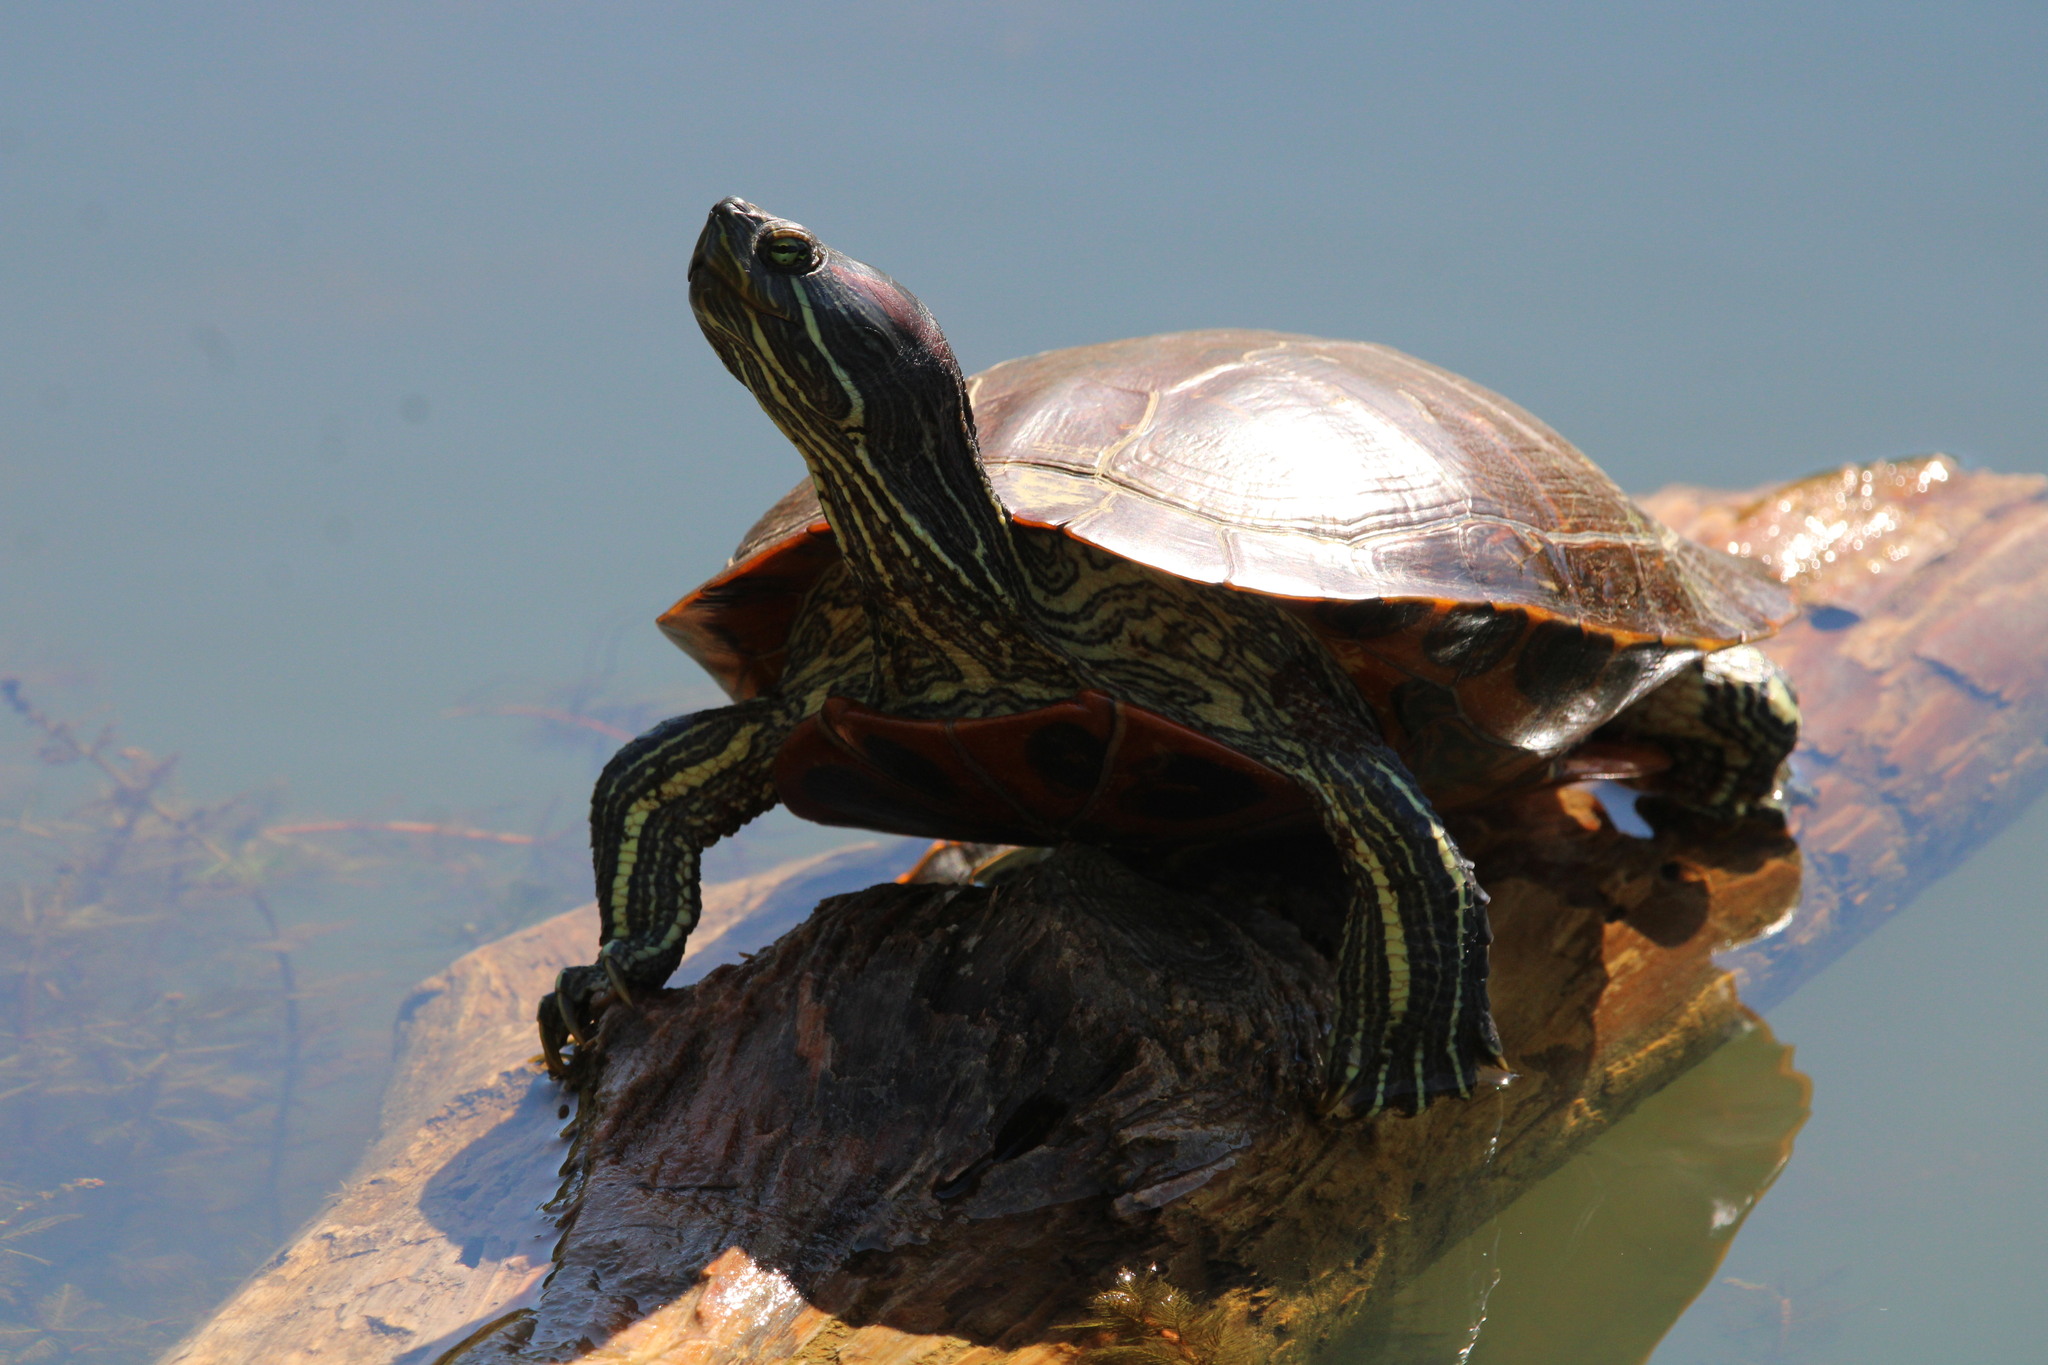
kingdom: Animalia
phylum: Chordata
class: Testudines
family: Emydidae
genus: Trachemys
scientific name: Trachemys scripta
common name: Slider
